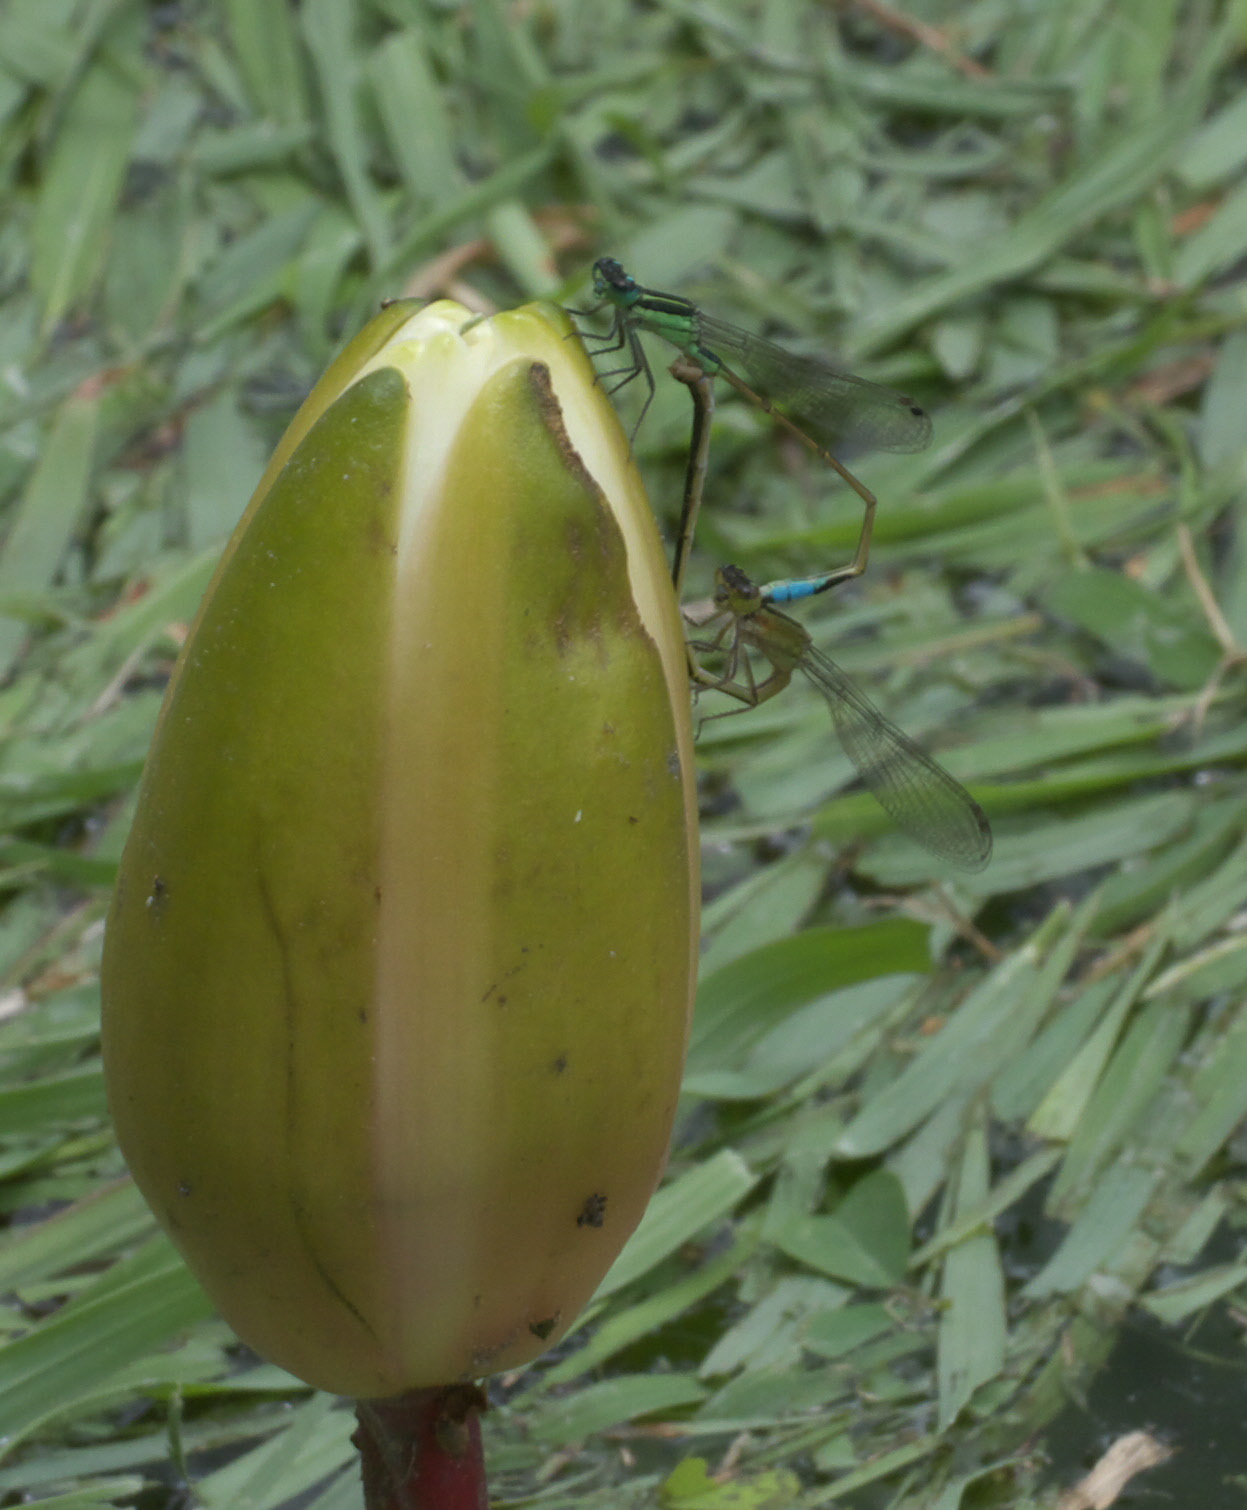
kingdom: Animalia
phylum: Arthropoda
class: Insecta
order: Odonata
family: Coenagrionidae
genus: Ischnura
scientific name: Ischnura ramburii
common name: Rambur's forktail
